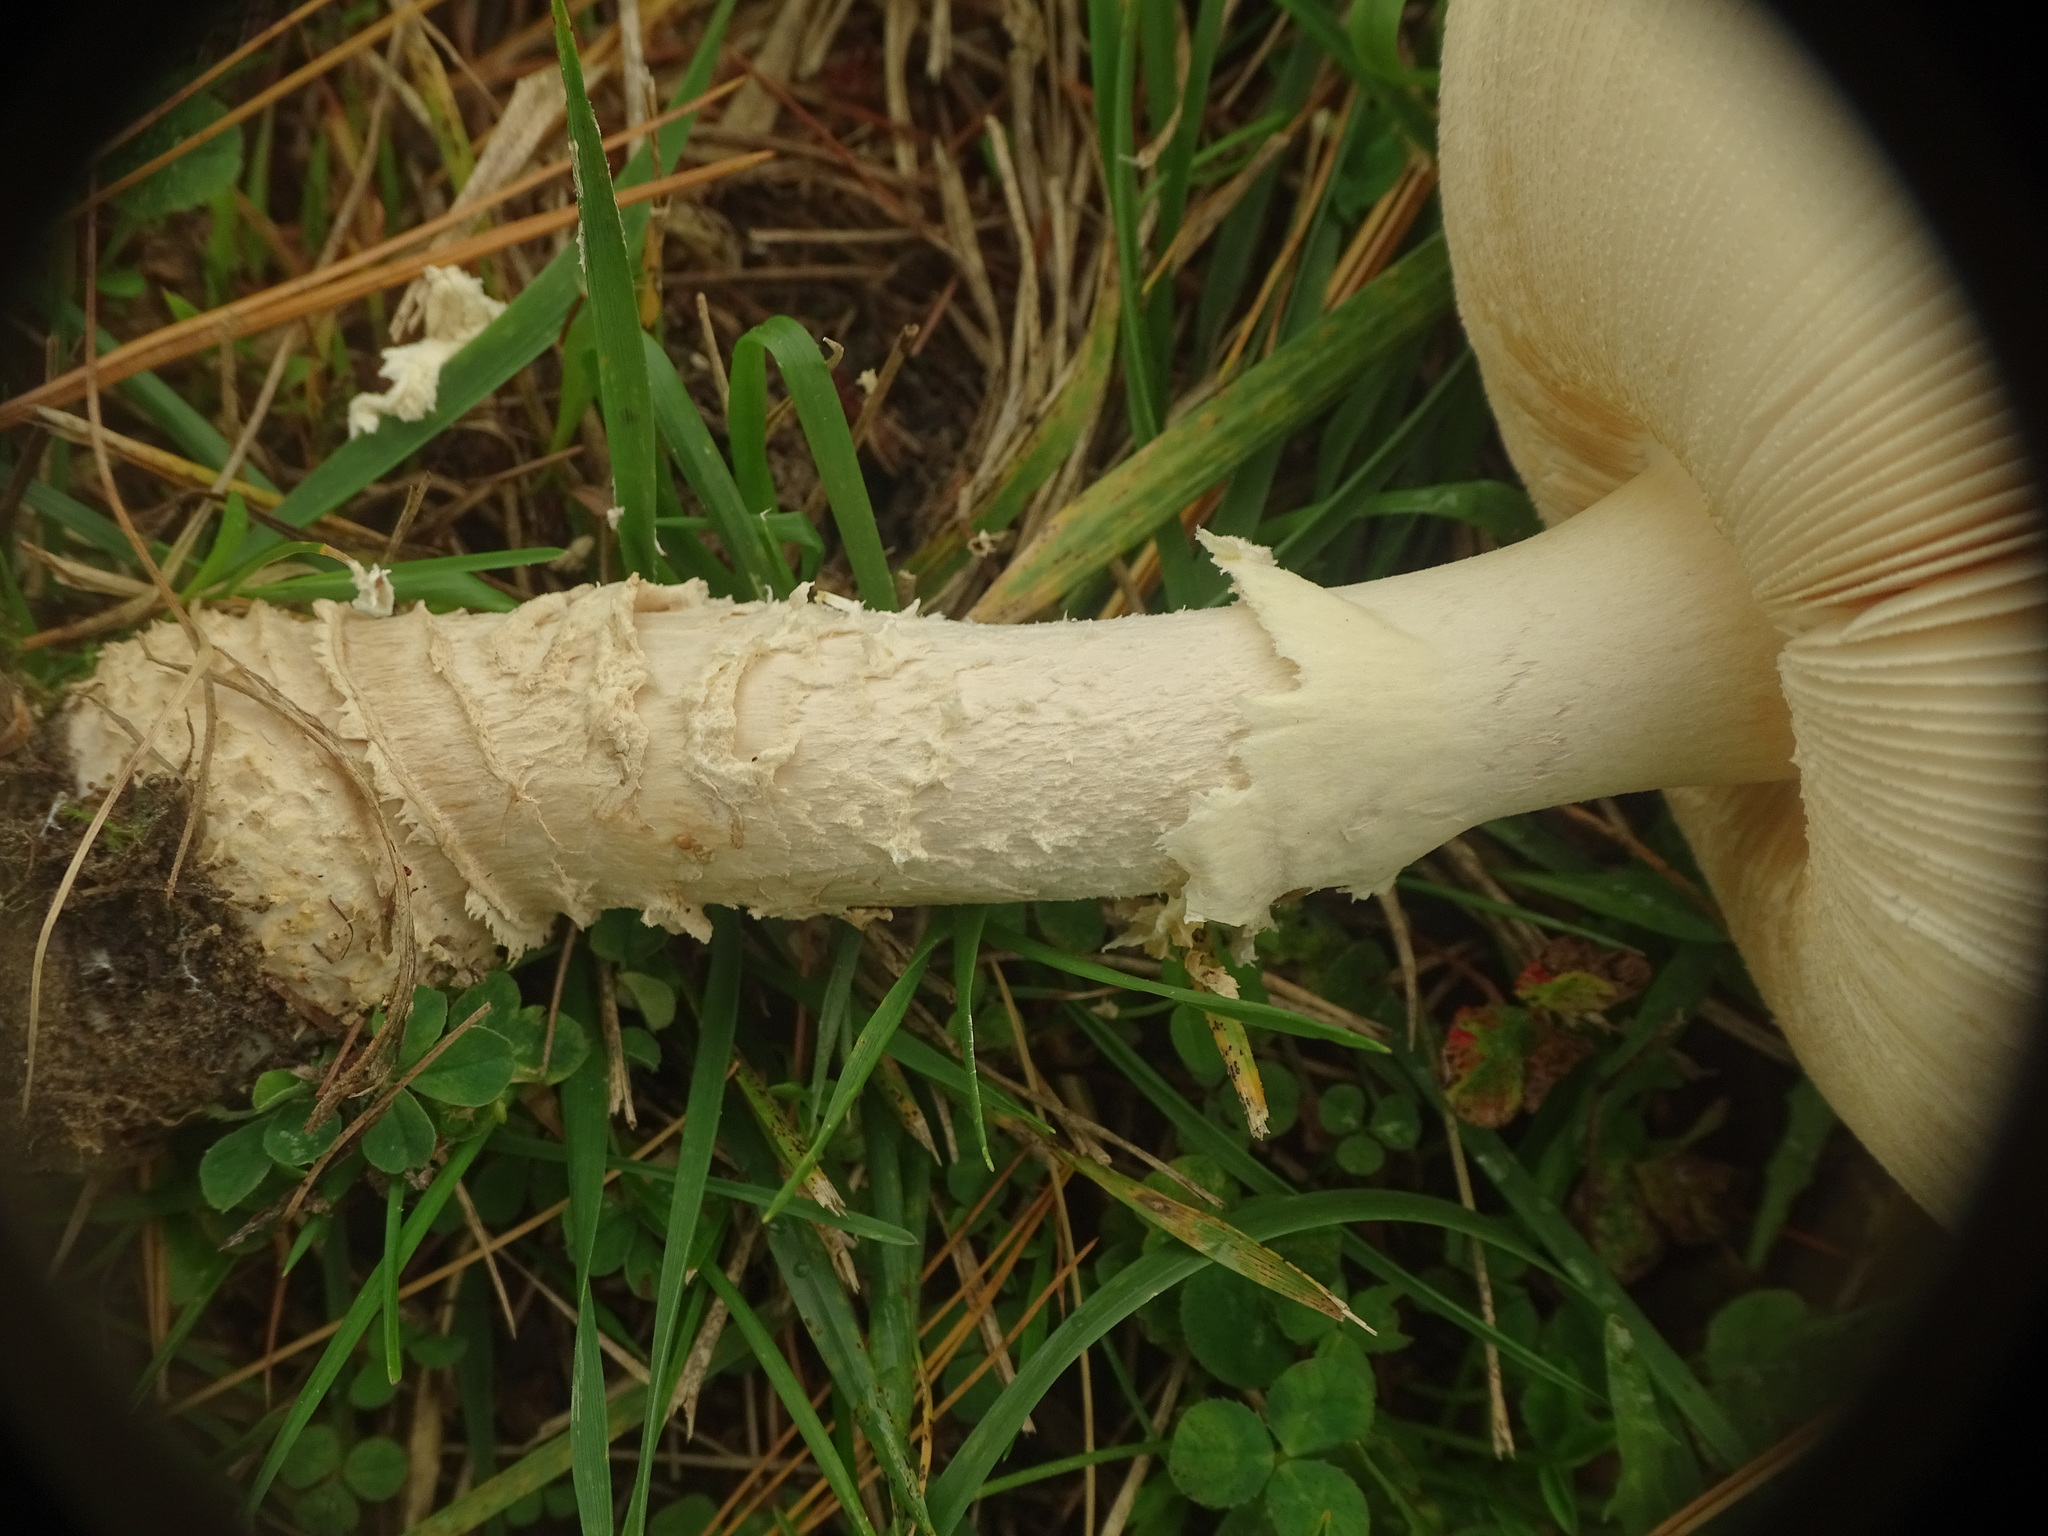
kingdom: Fungi
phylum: Basidiomycota
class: Agaricomycetes
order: Agaricales
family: Amanitaceae
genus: Amanita
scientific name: Amanita muscaria
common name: Fly agaric
